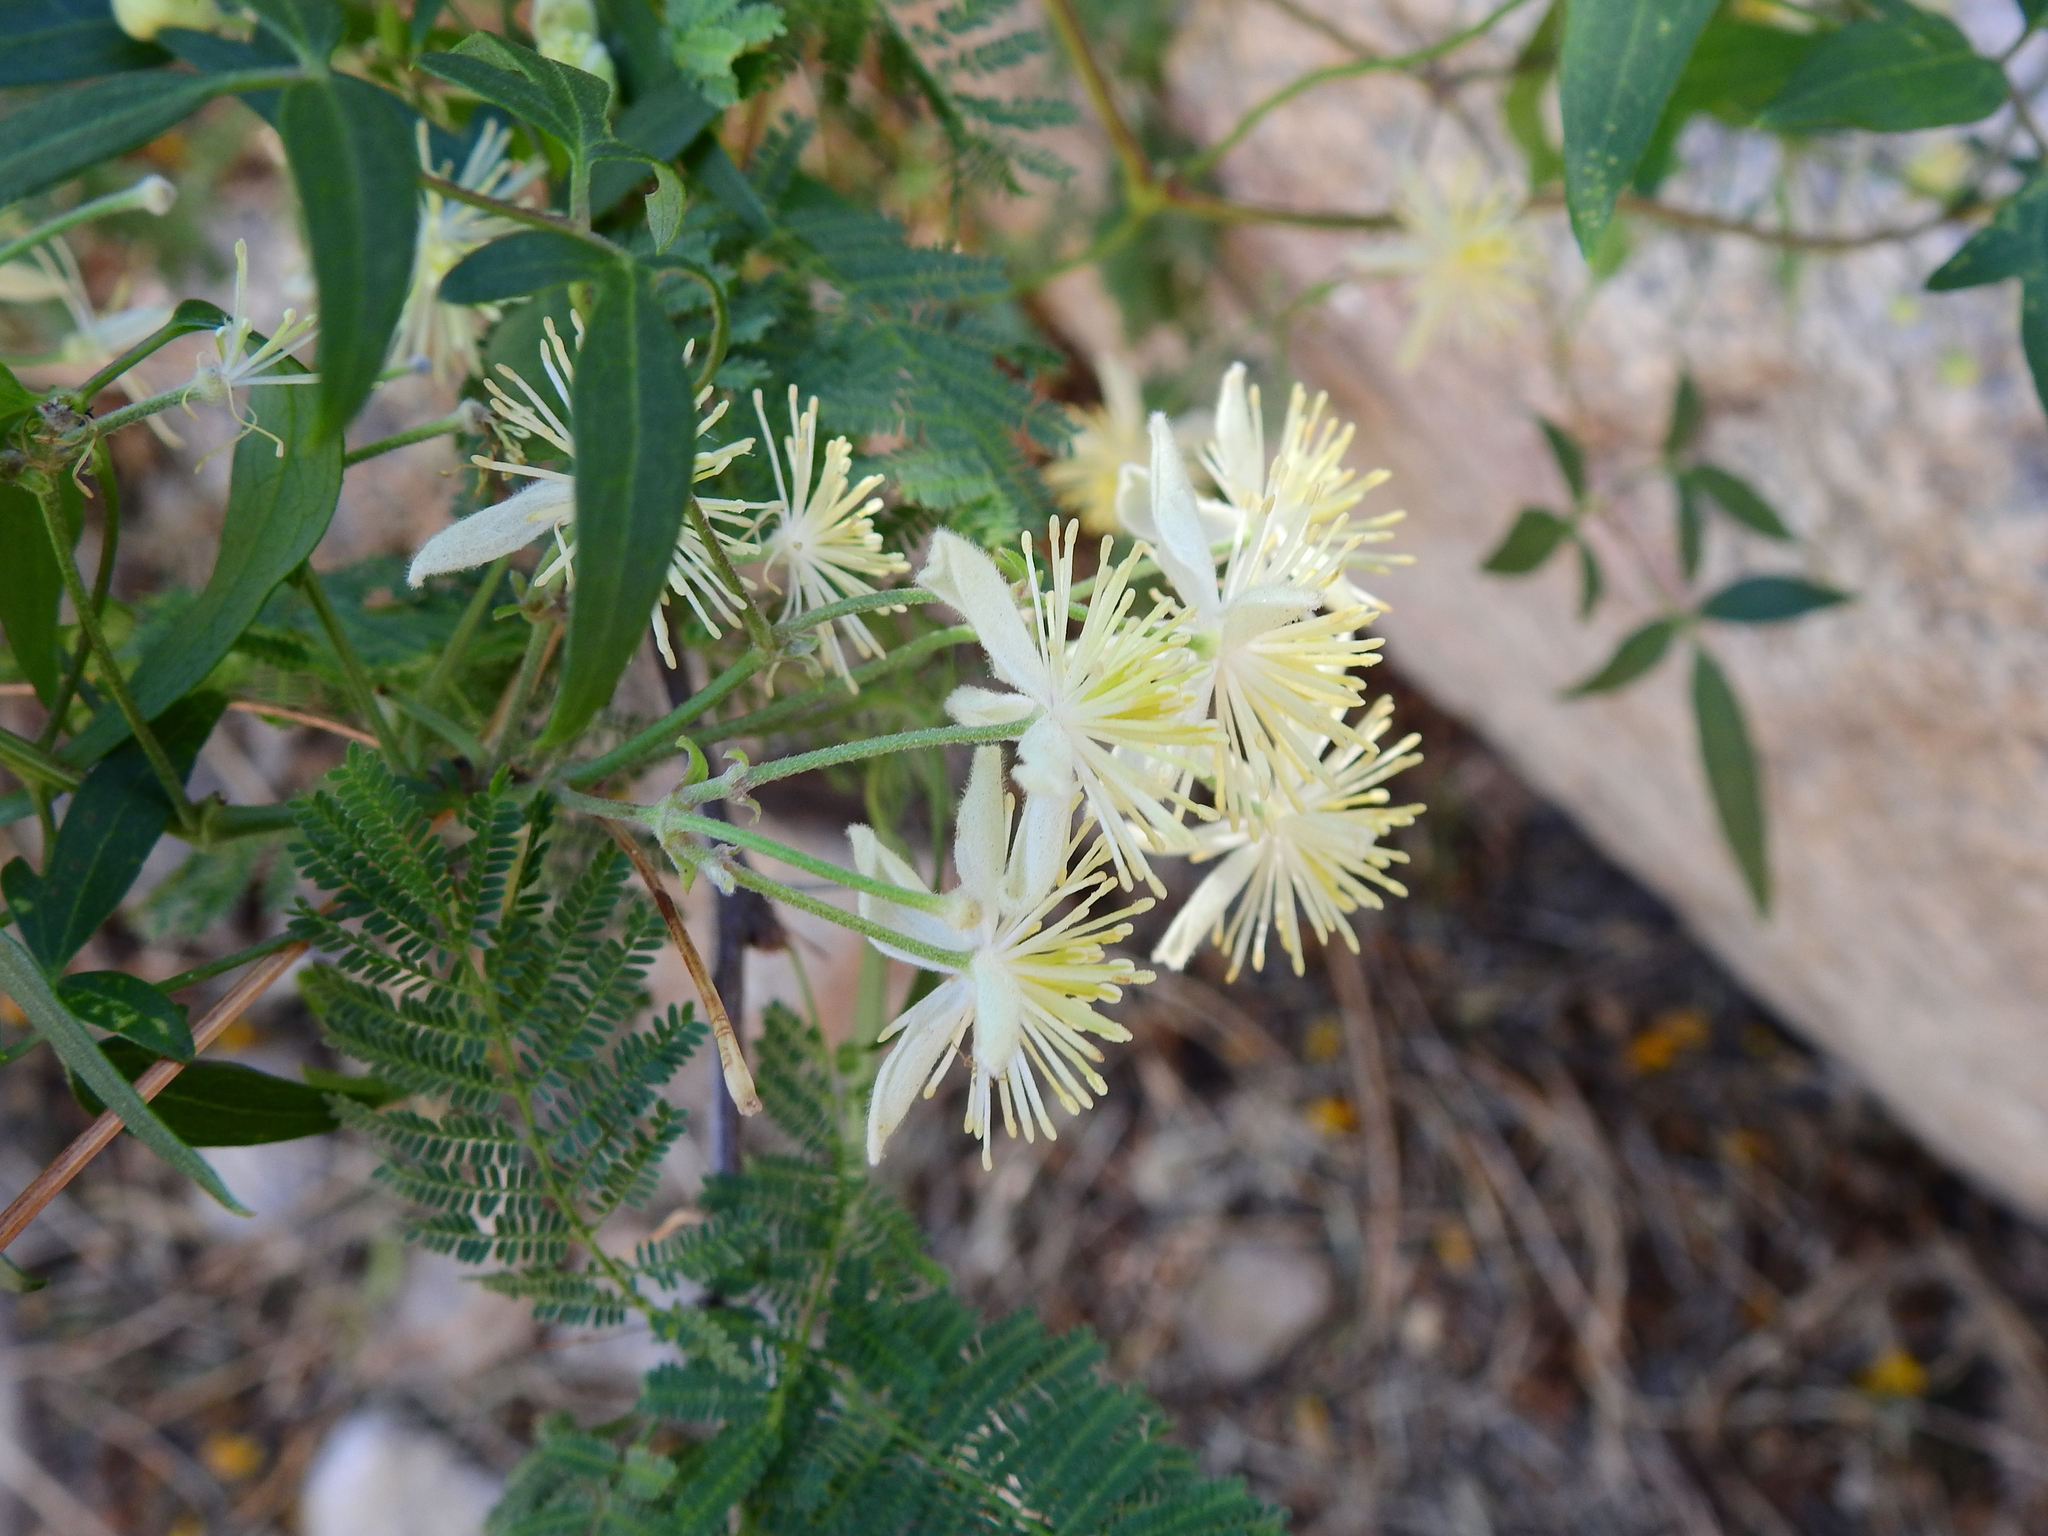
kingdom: Plantae
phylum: Tracheophyta
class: Magnoliopsida
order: Ranunculales
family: Ranunculaceae
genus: Clematis
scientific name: Clematis montevidensis
